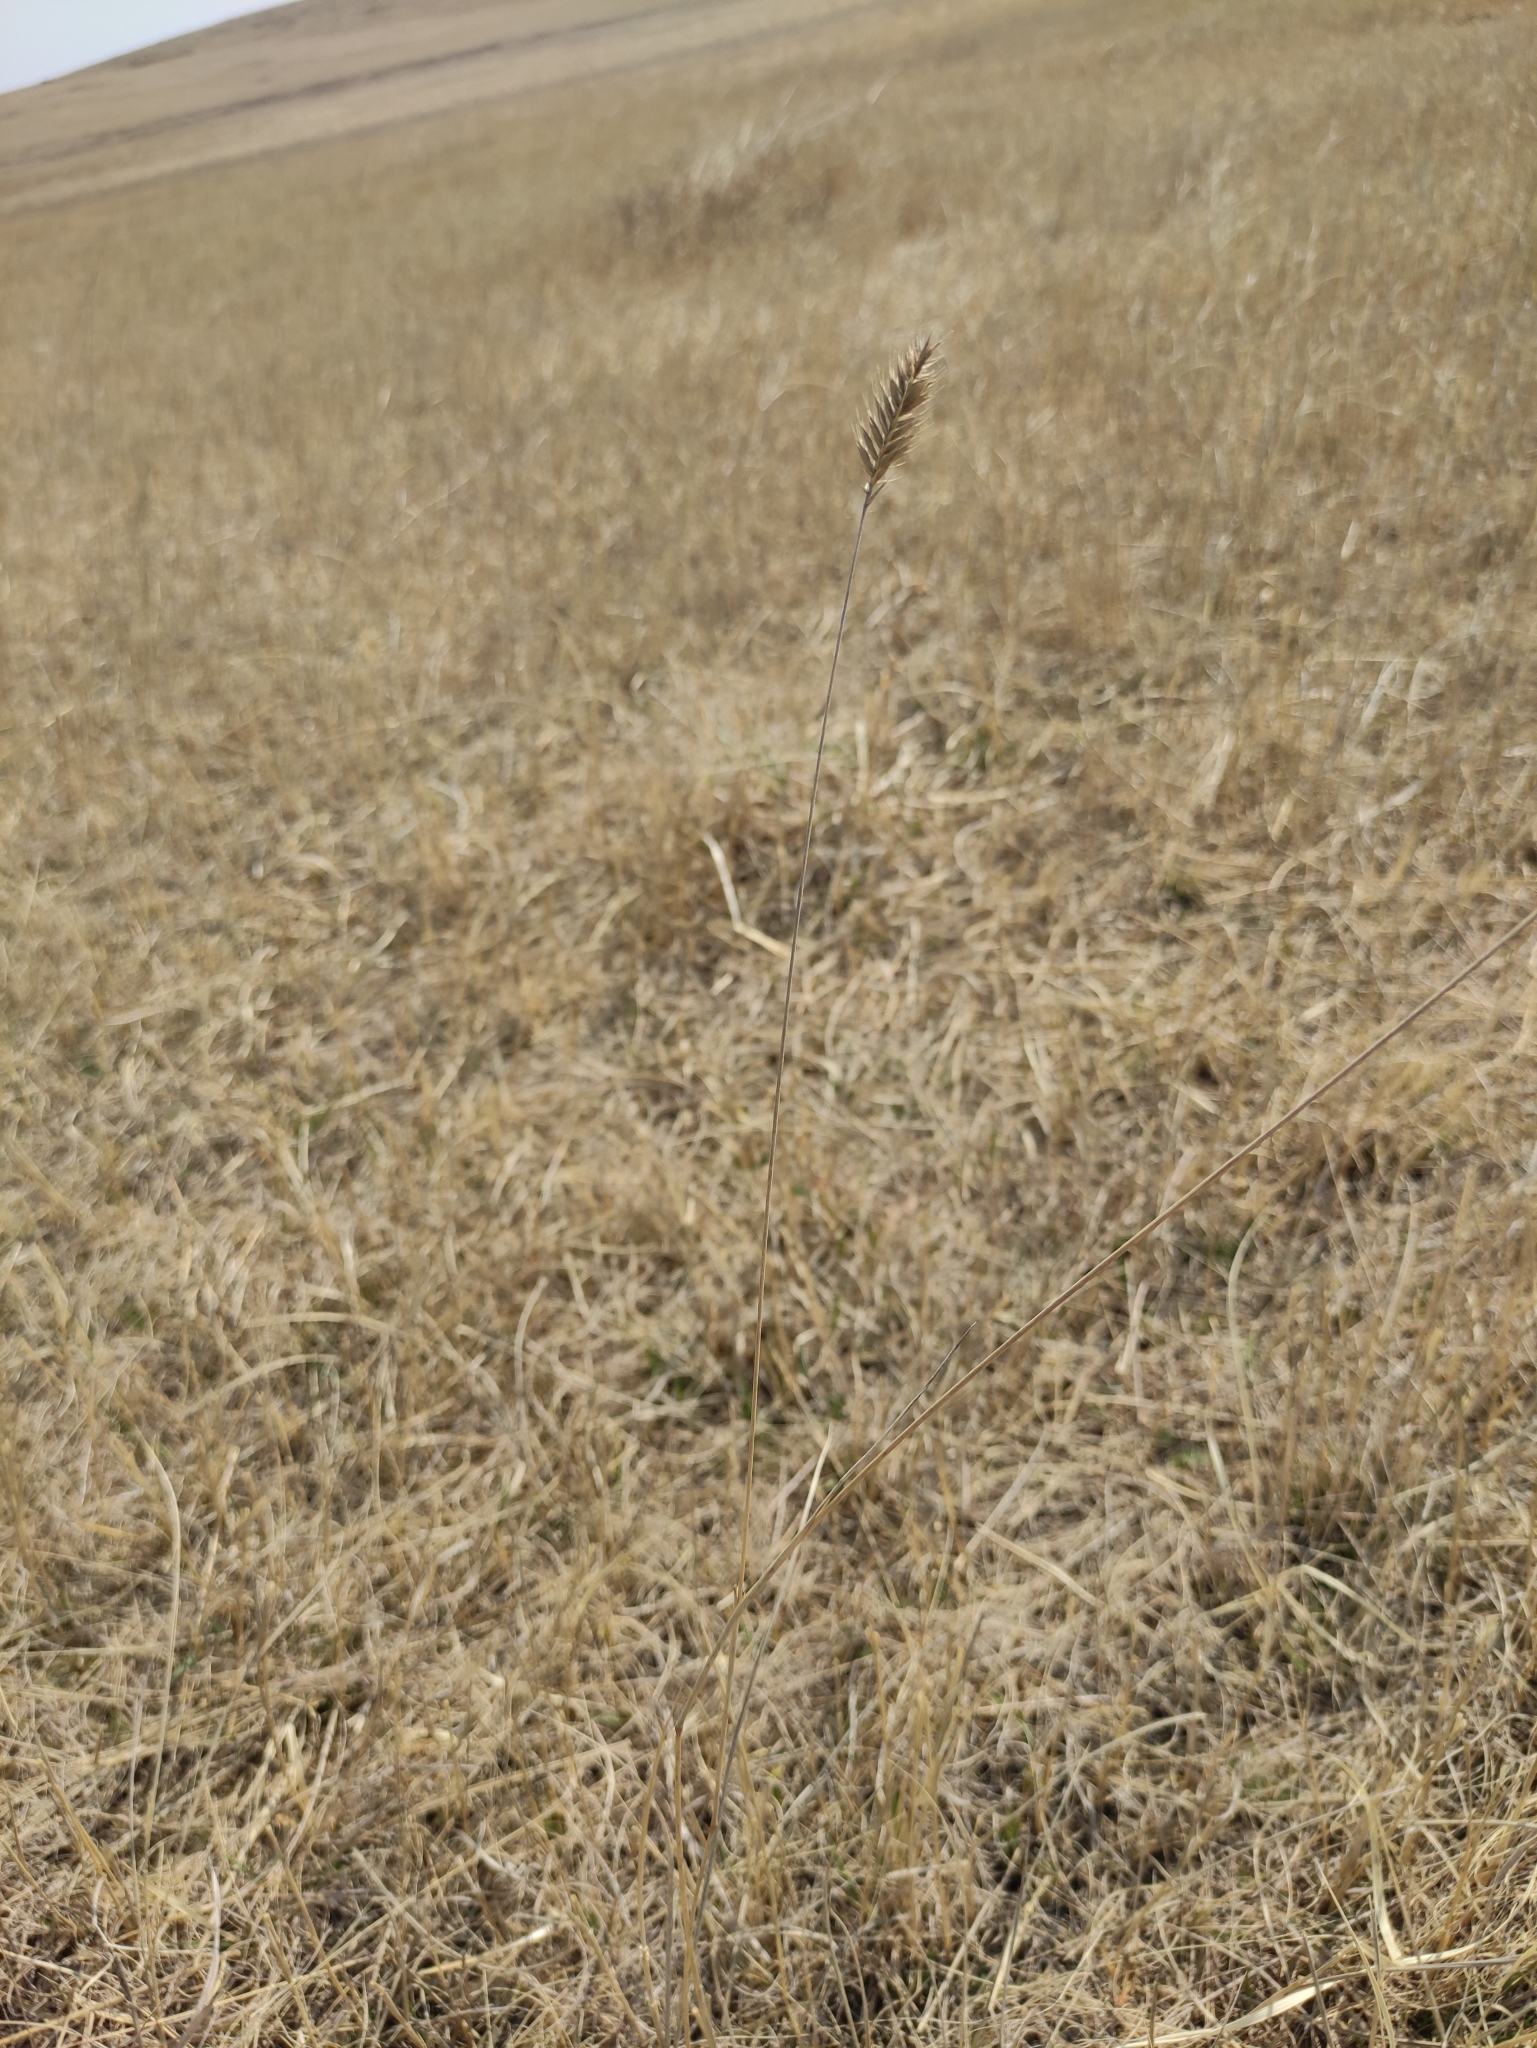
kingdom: Plantae
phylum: Tracheophyta
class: Liliopsida
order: Poales
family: Poaceae
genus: Agropyron
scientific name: Agropyron cristatum
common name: Crested wheatgrass
